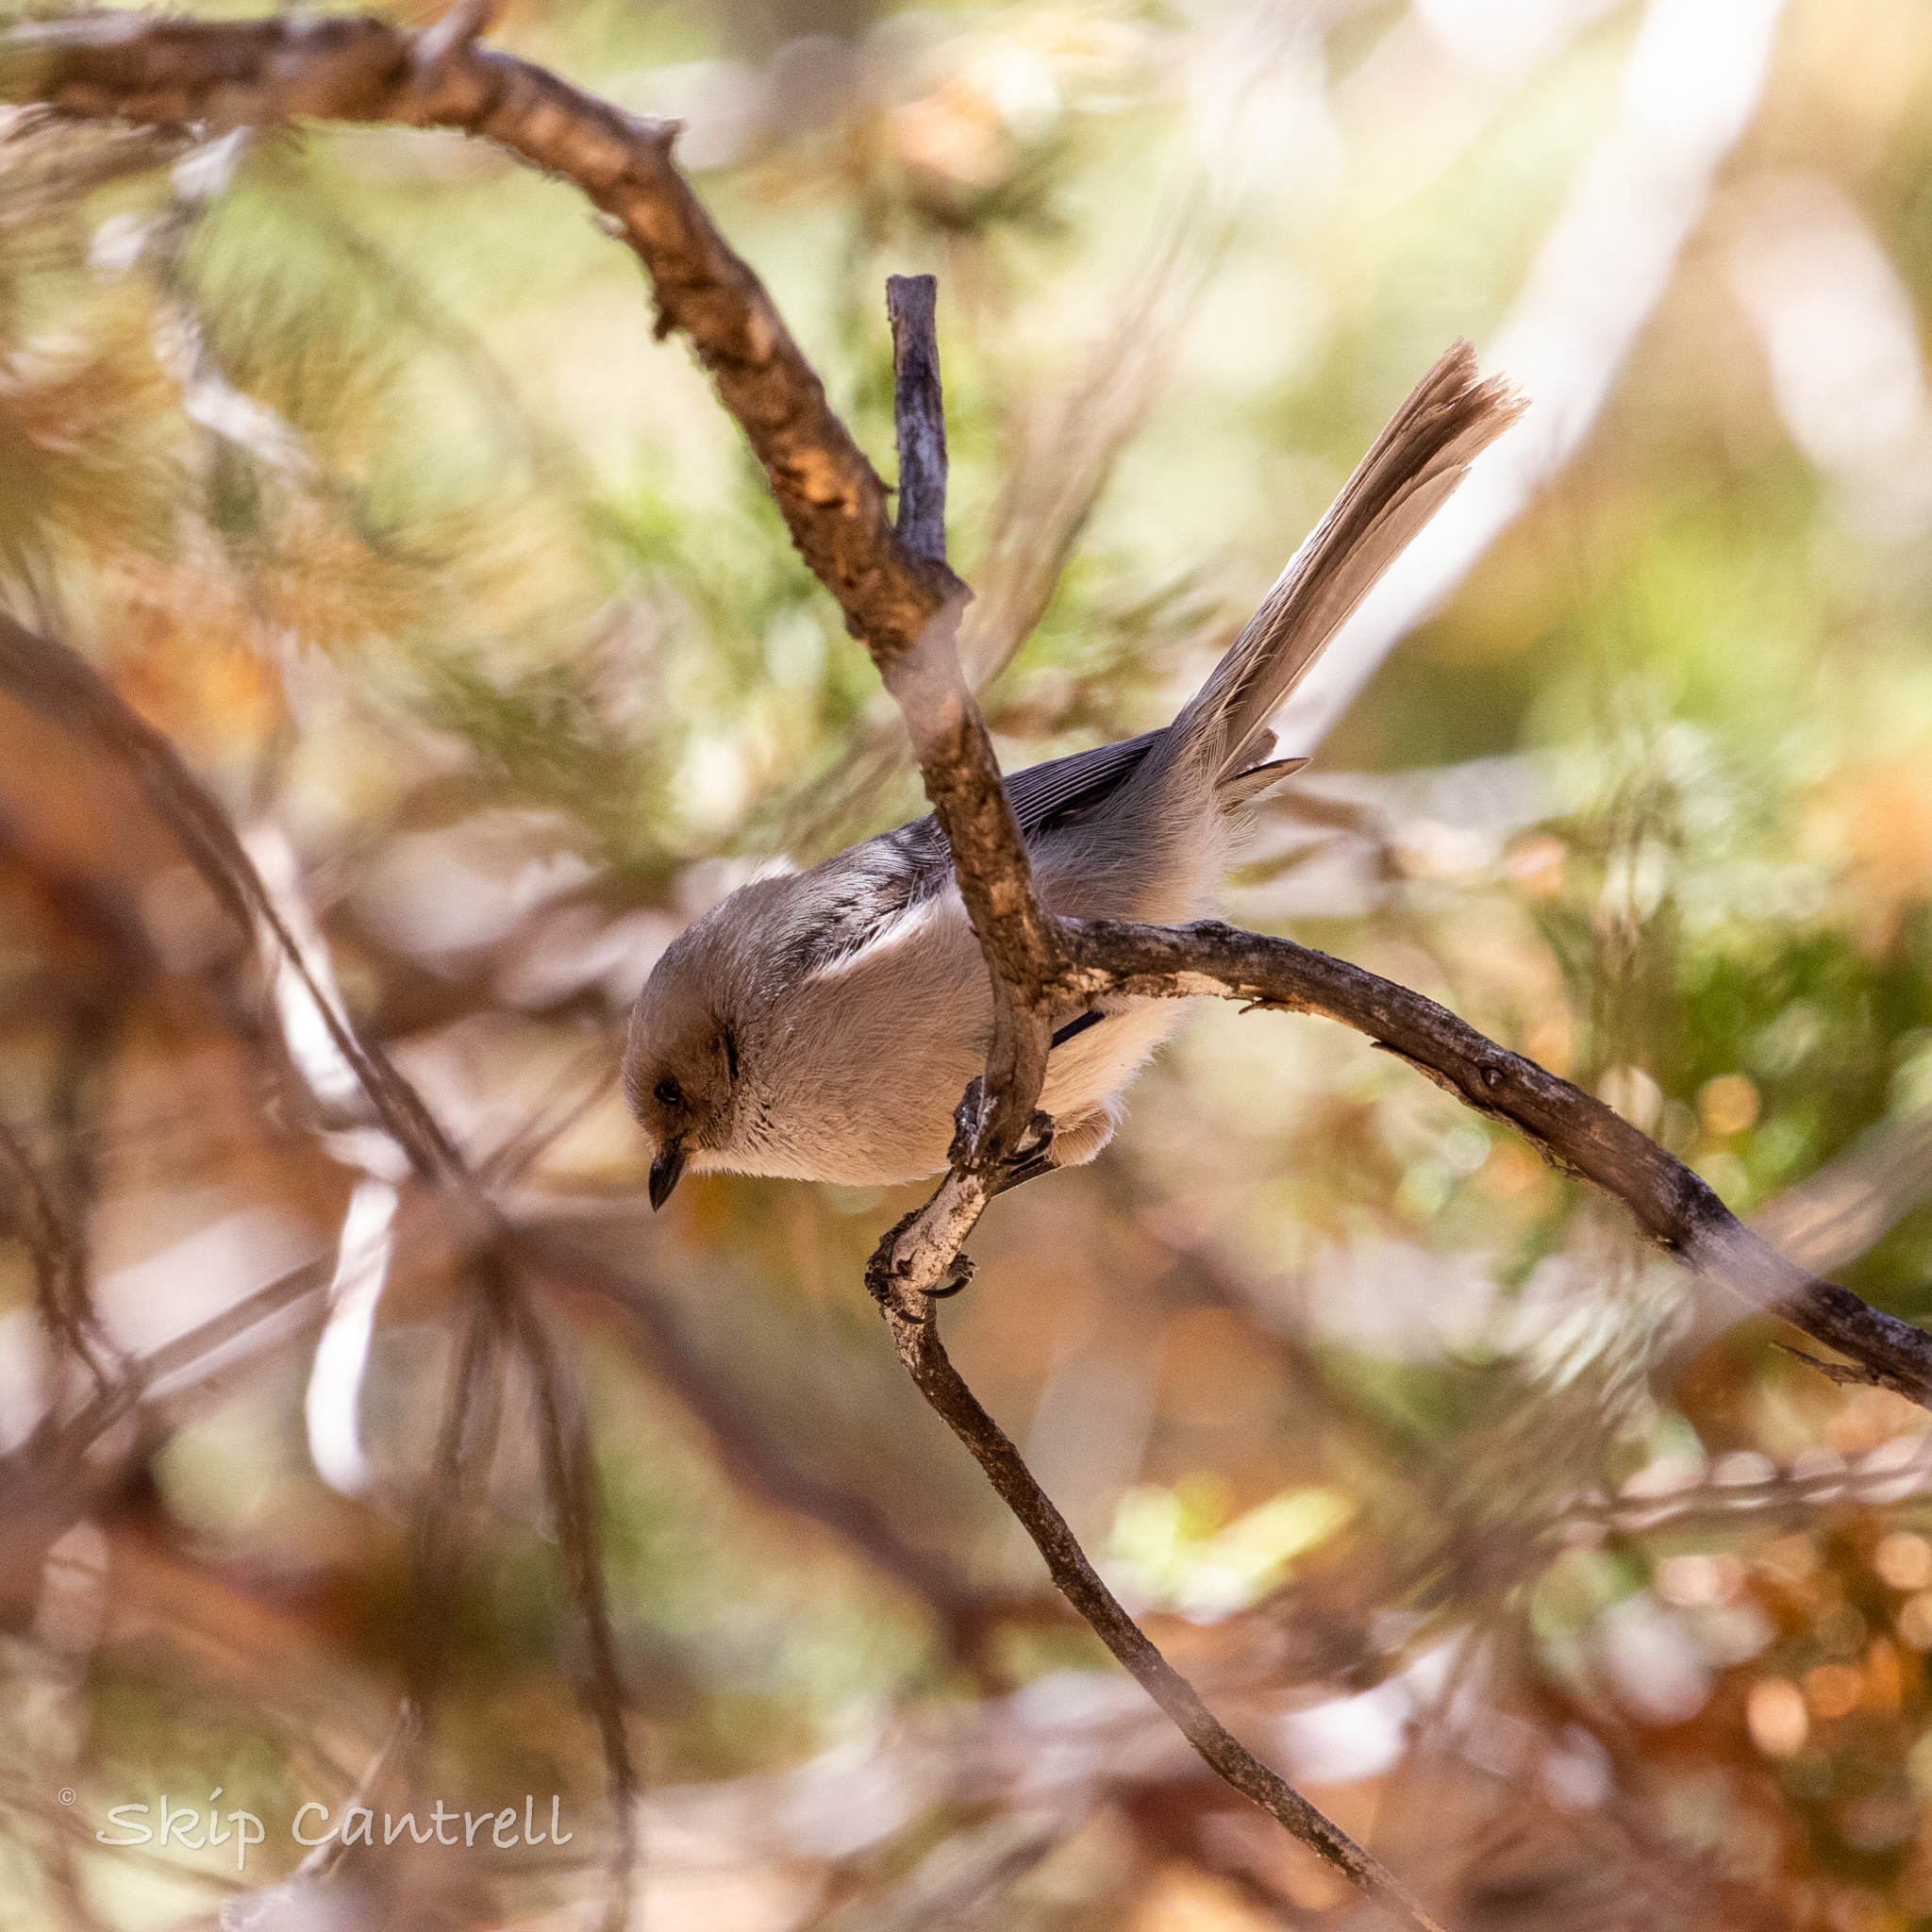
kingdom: Animalia
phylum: Chordata
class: Aves
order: Passeriformes
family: Aegithalidae
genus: Psaltriparus
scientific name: Psaltriparus minimus
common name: American bushtit
